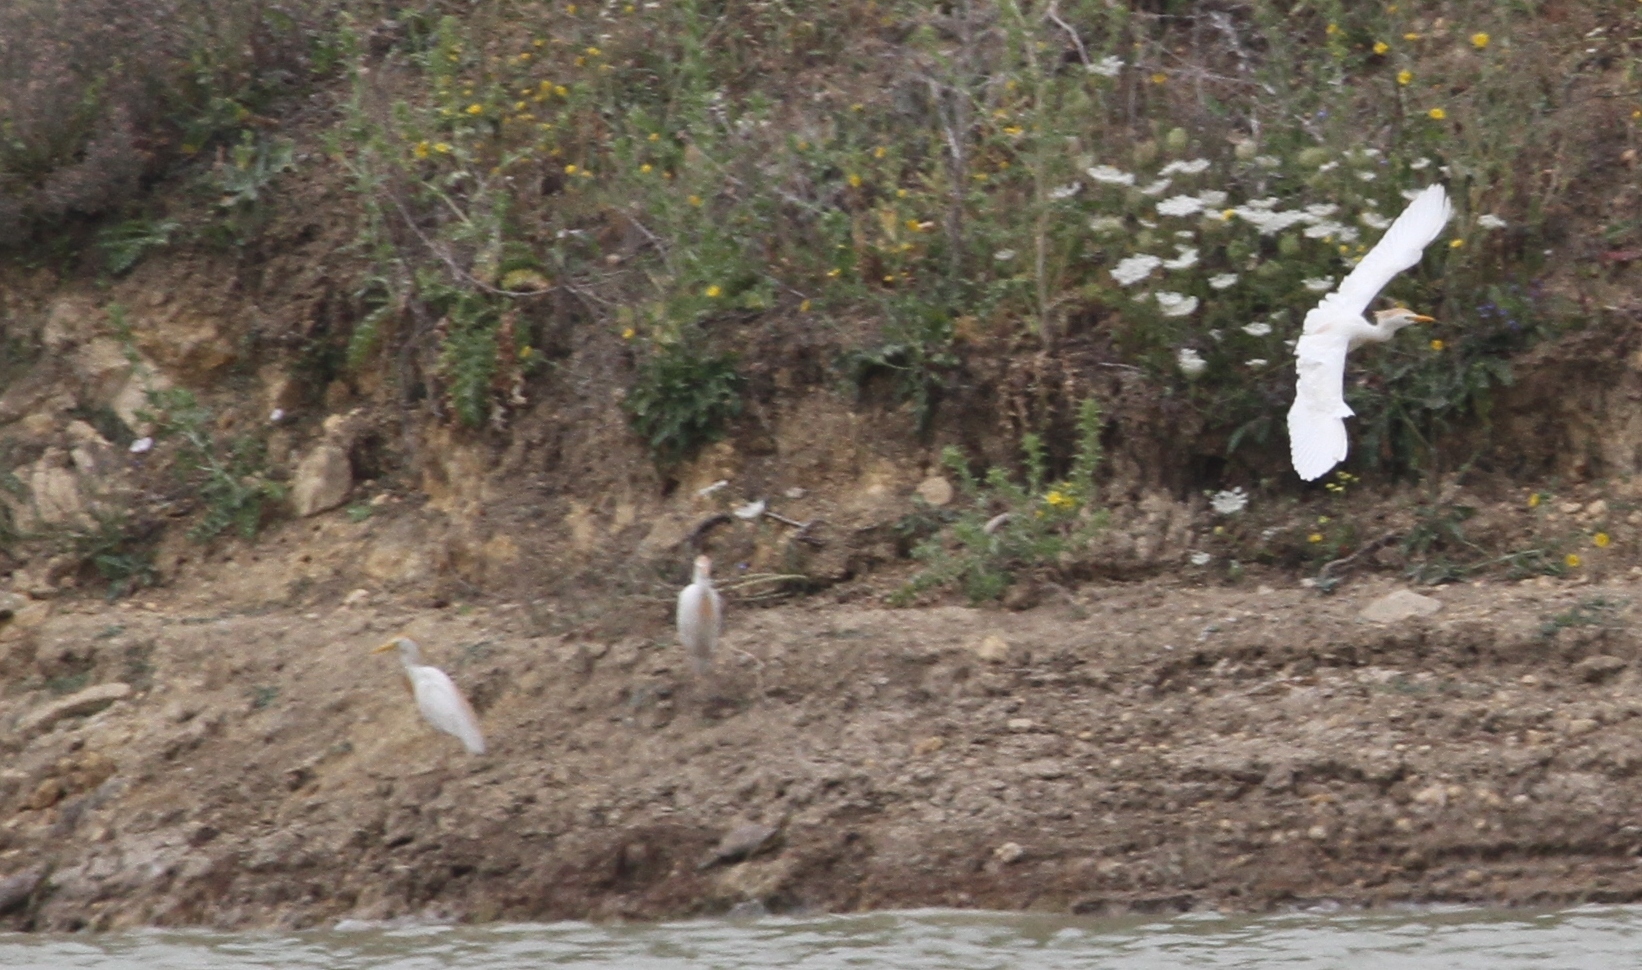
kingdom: Animalia
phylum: Chordata
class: Aves
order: Pelecaniformes
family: Ardeidae
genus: Bubulcus
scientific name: Bubulcus ibis
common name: Cattle egret
